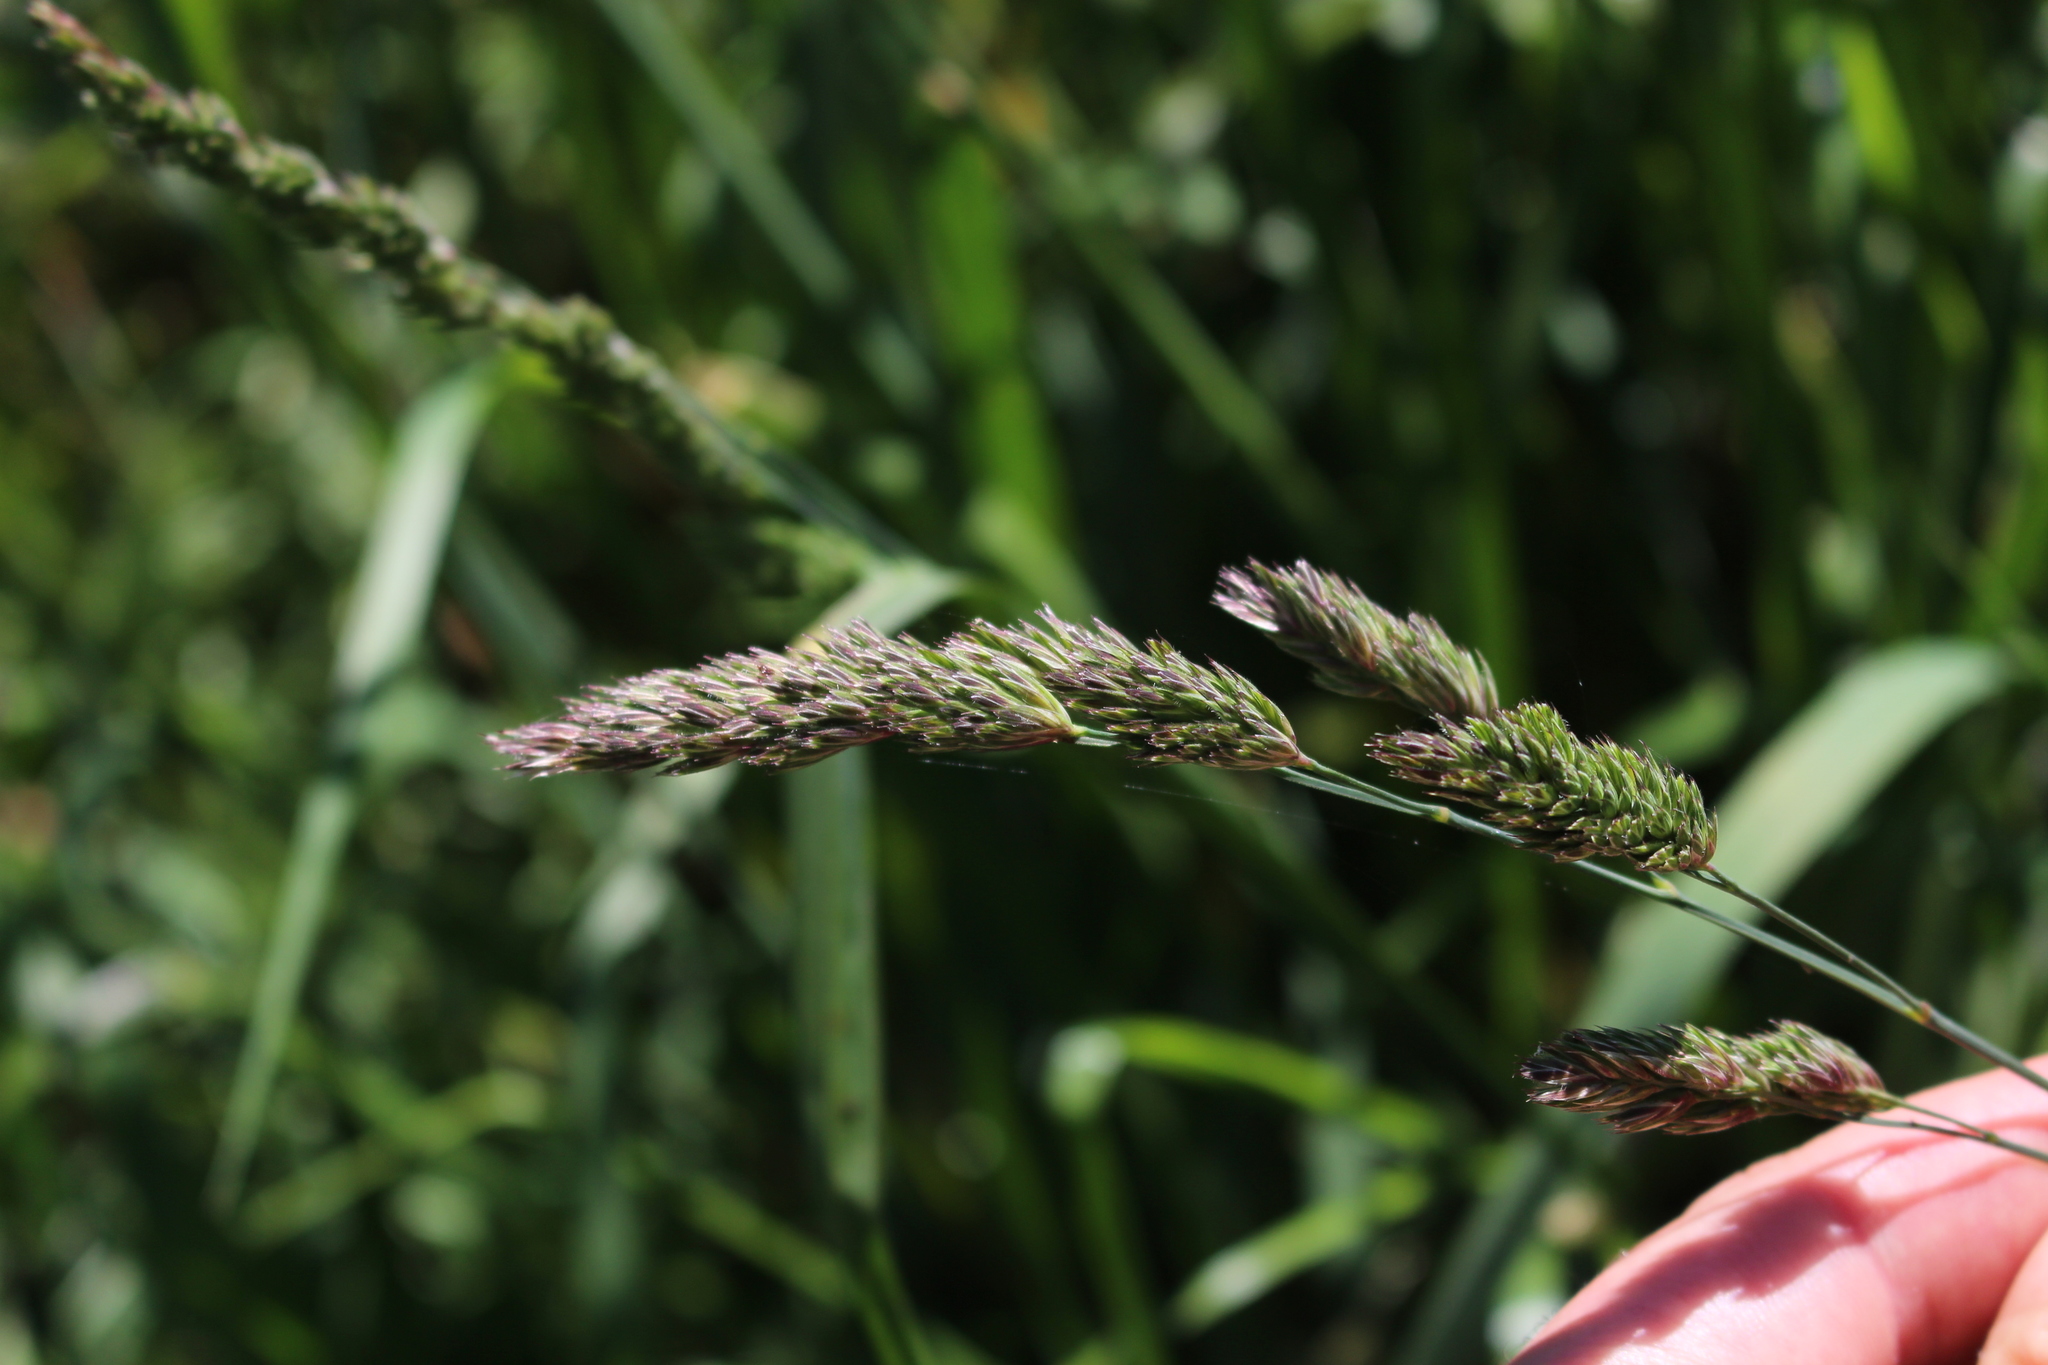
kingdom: Plantae
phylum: Tracheophyta
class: Liliopsida
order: Poales
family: Poaceae
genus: Dactylis
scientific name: Dactylis glomerata
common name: Orchardgrass
